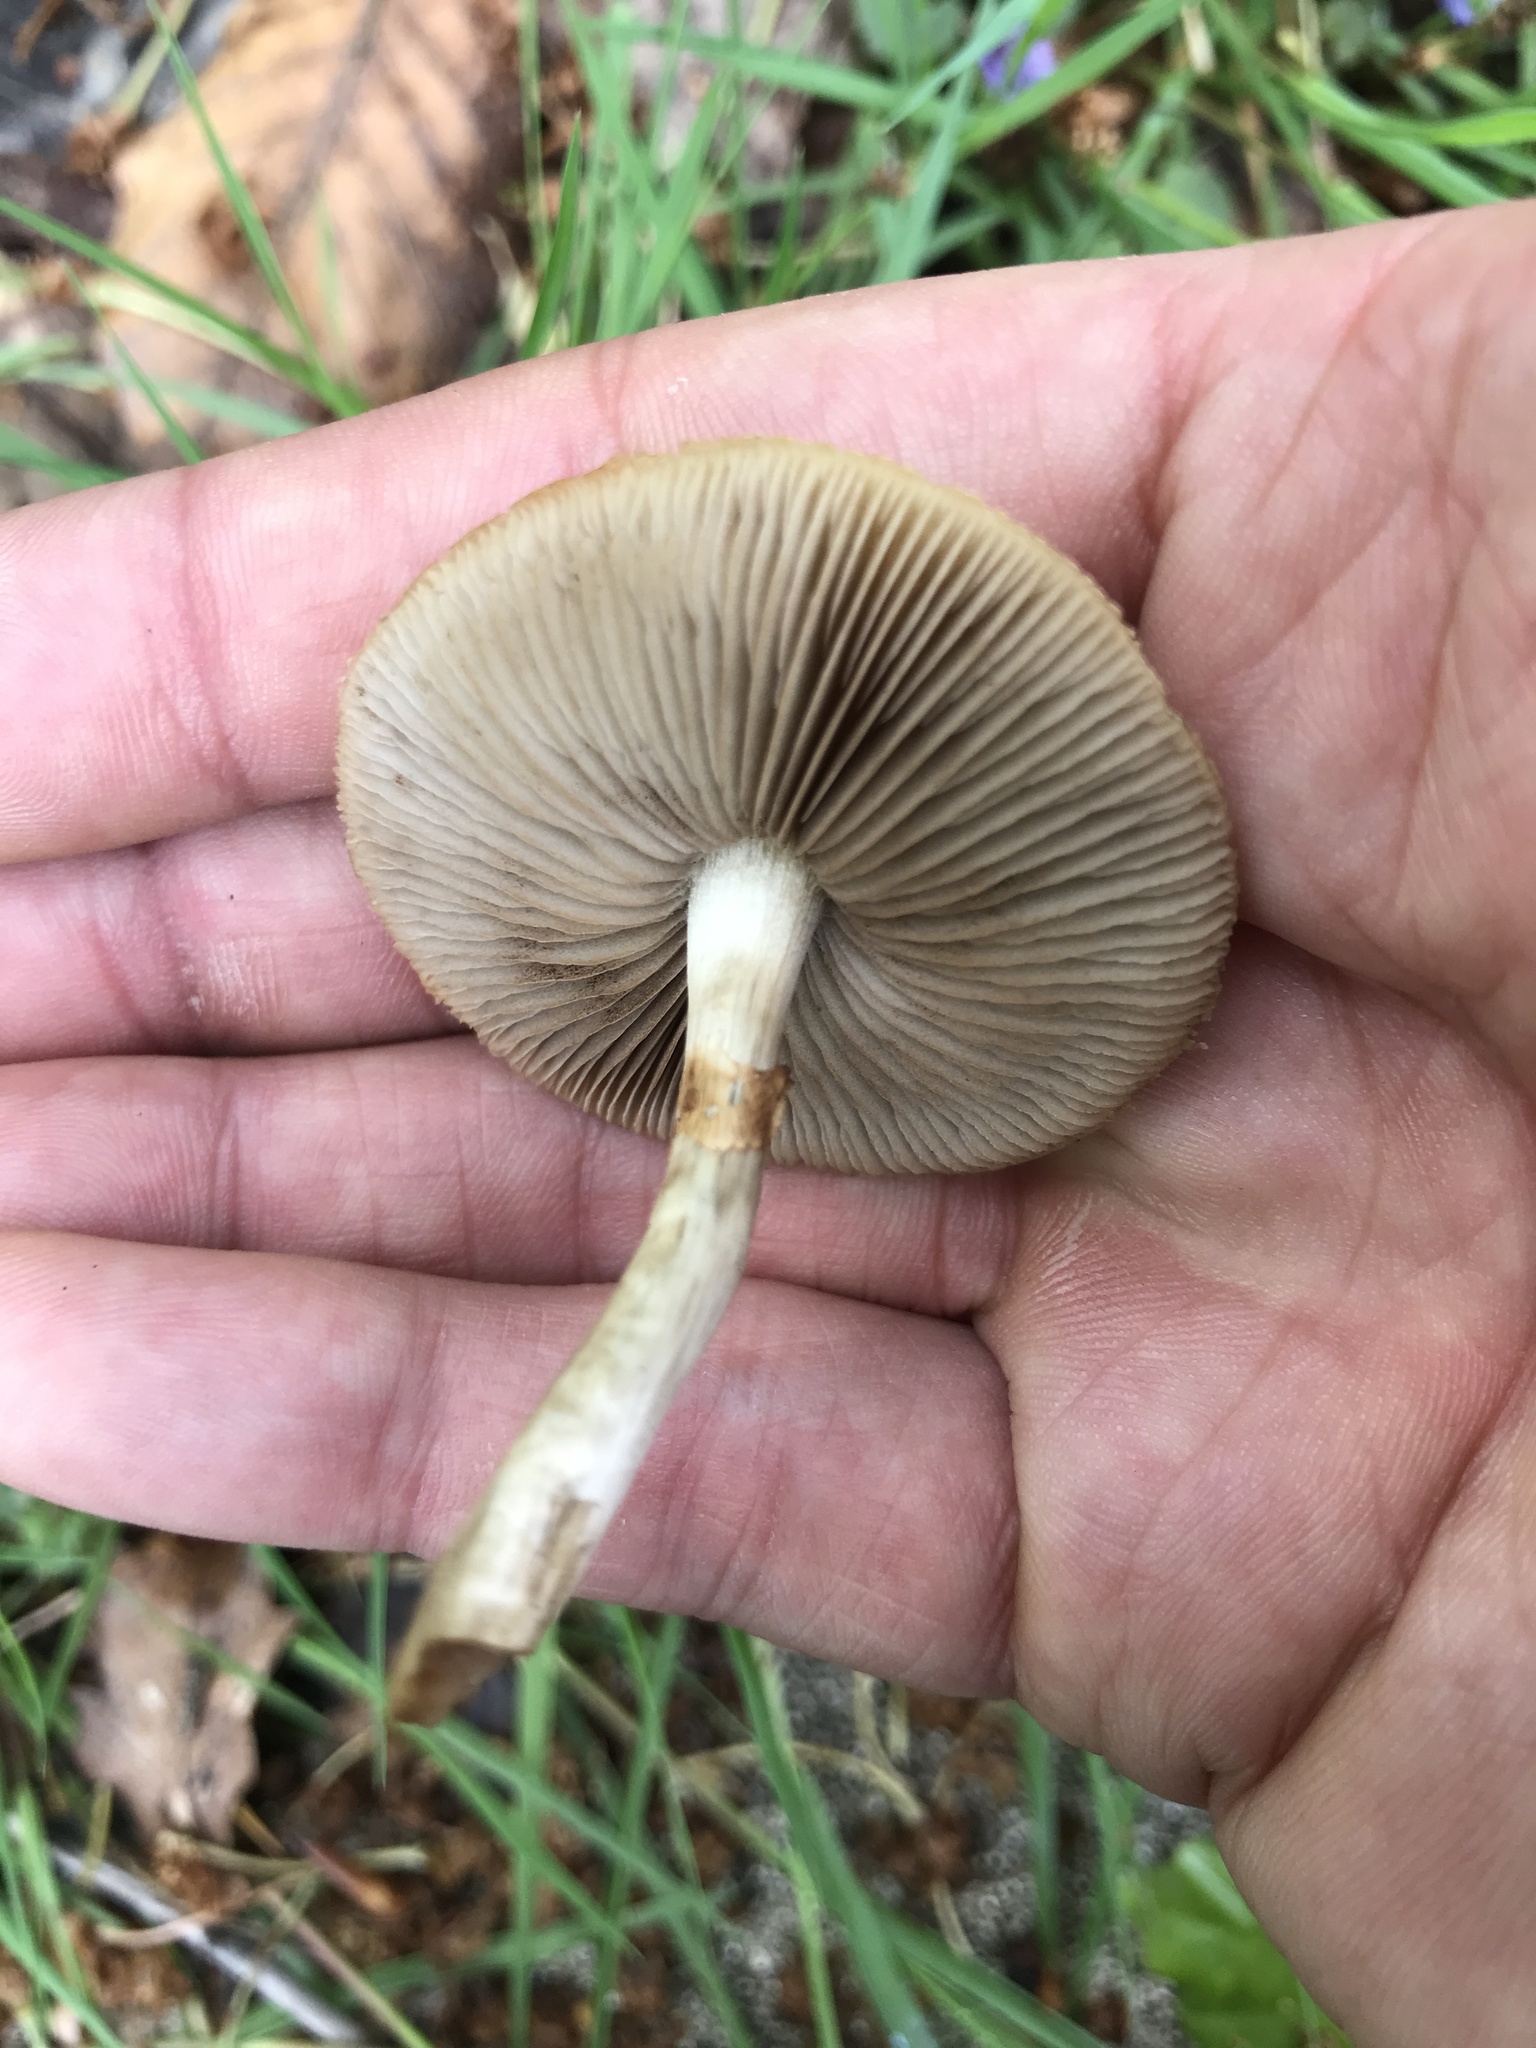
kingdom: Fungi
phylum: Basidiomycota
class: Agaricomycetes
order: Agaricales
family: Strophariaceae
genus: Agrocybe
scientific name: Agrocybe praecox
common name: Spring fieldcap
